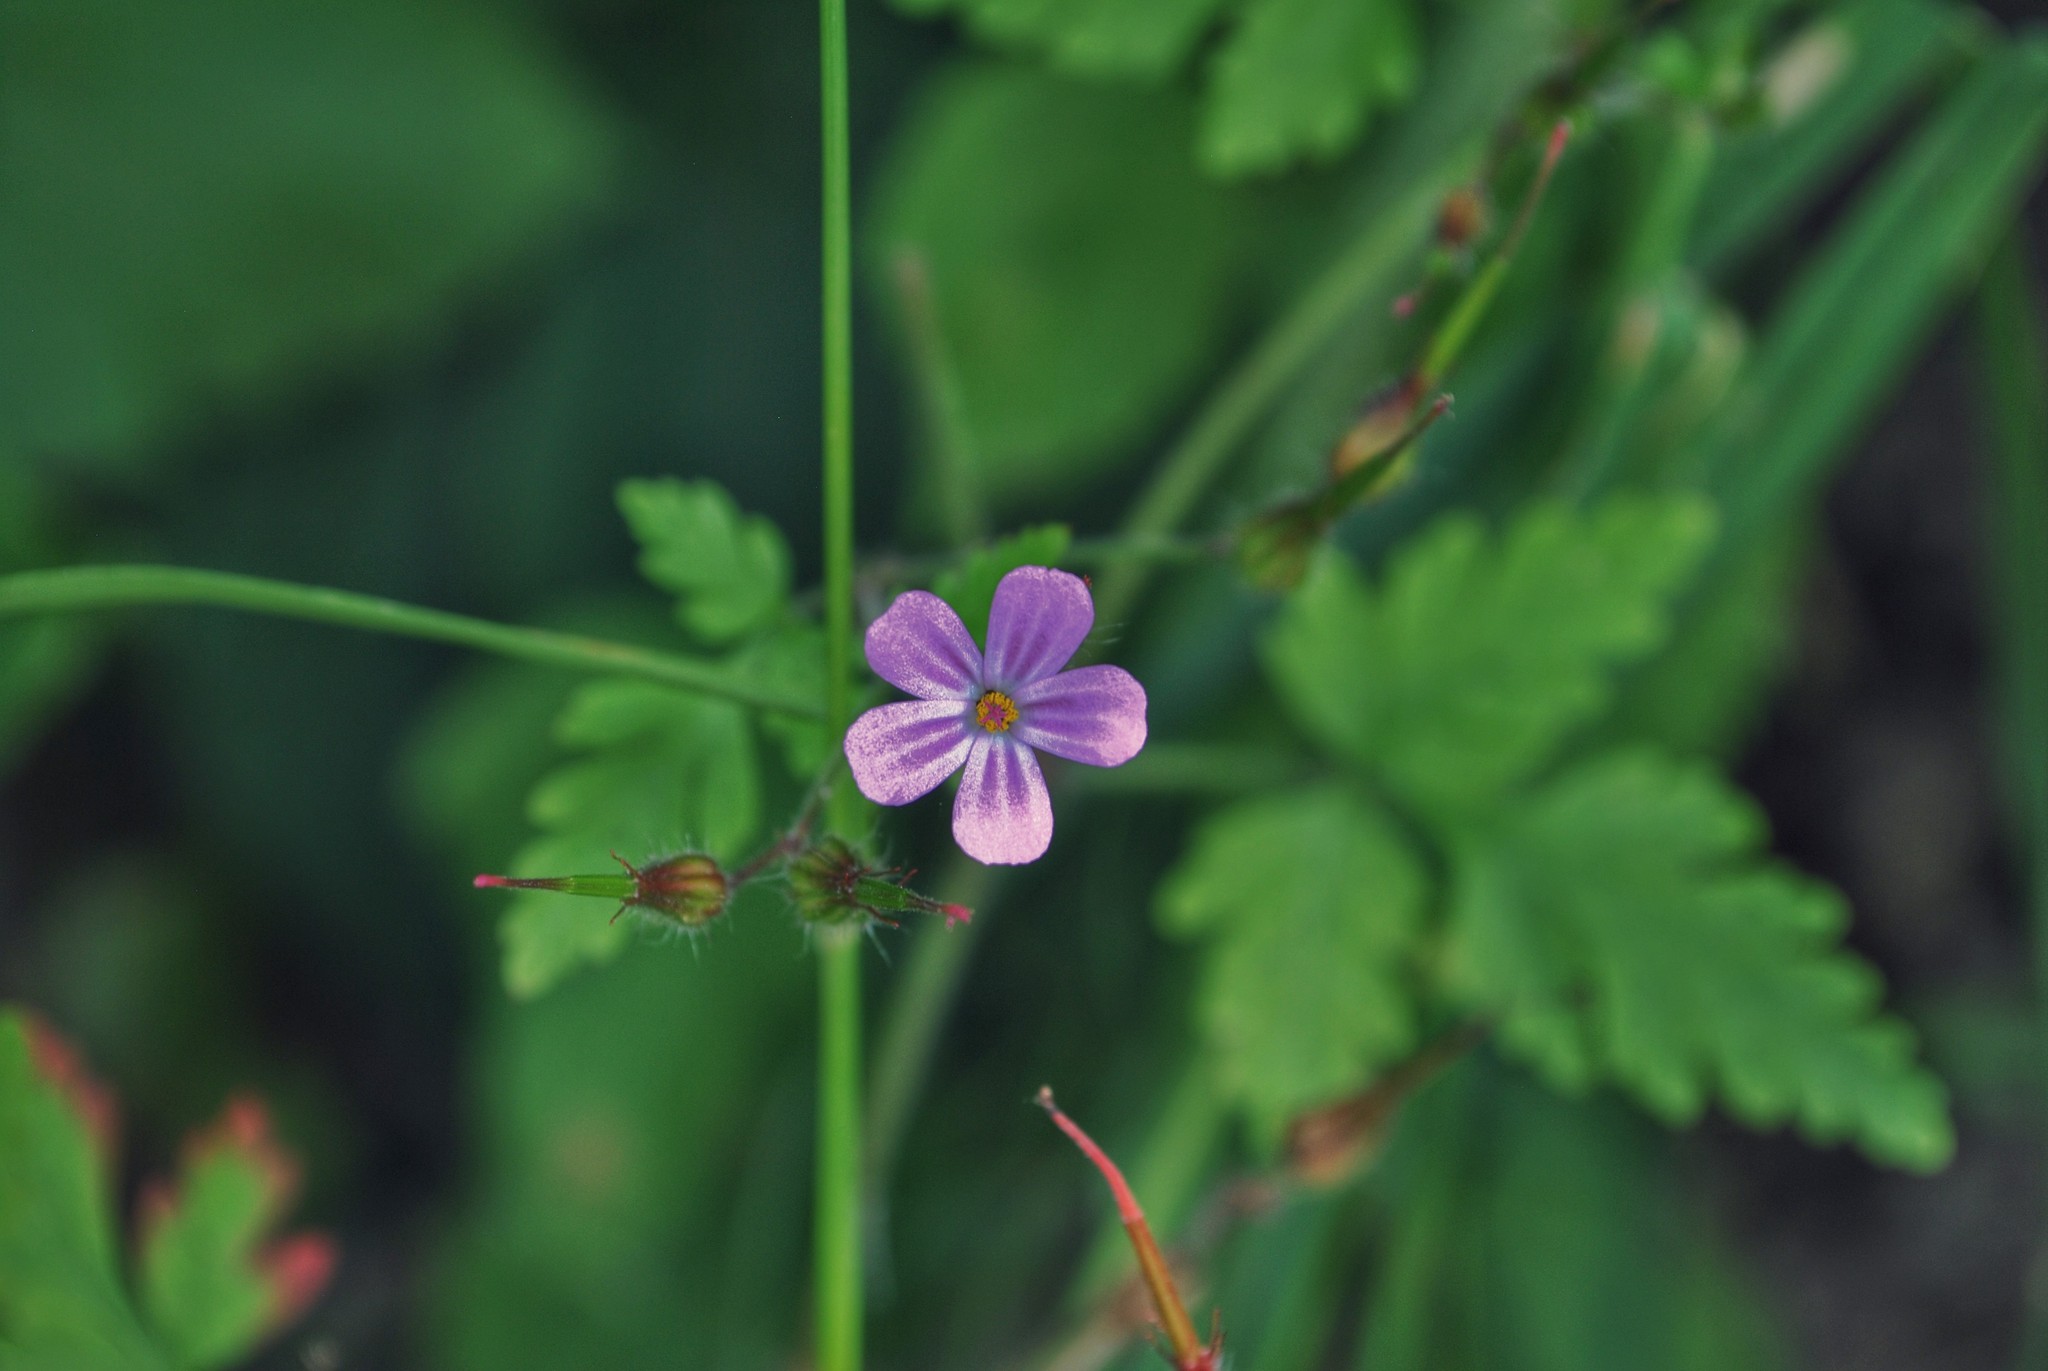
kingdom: Plantae
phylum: Tracheophyta
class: Magnoliopsida
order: Geraniales
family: Geraniaceae
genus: Geranium
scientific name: Geranium robertianum
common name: Herb-robert
